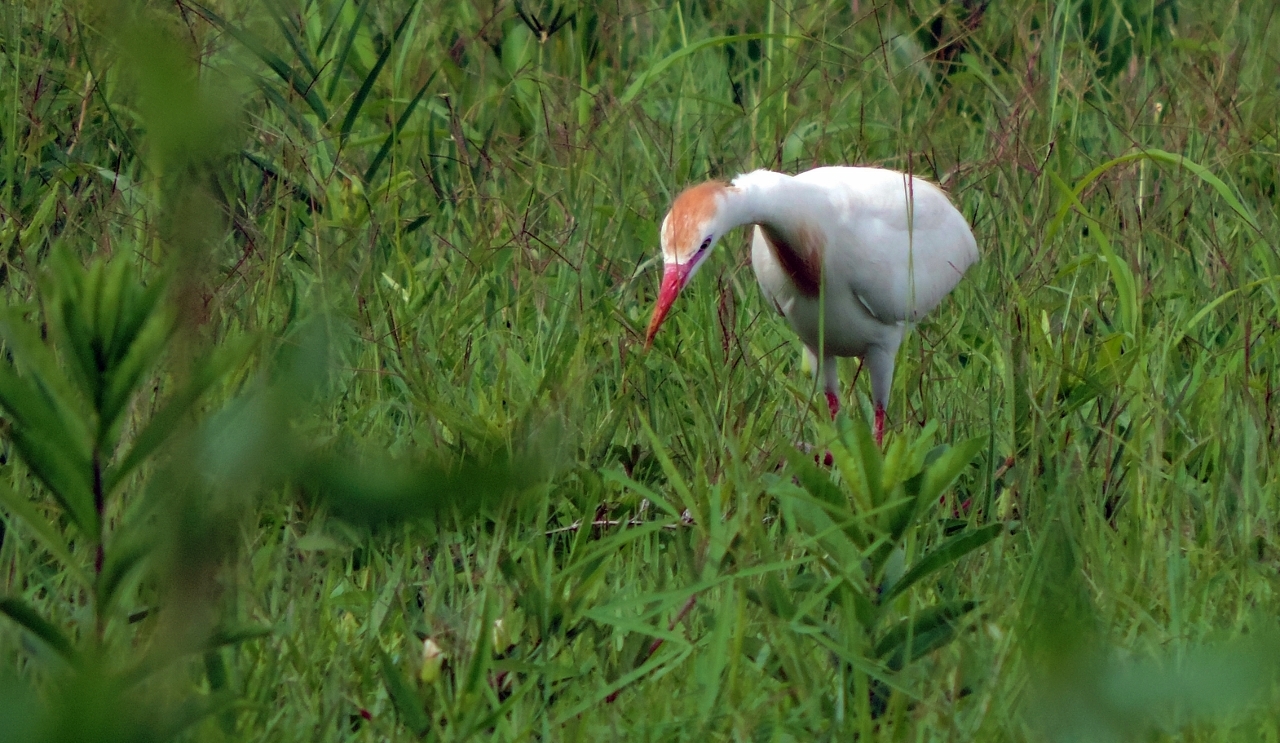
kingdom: Animalia
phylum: Chordata
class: Aves
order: Pelecaniformes
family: Ardeidae
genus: Bubulcus
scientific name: Bubulcus ibis
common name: Cattle egret
